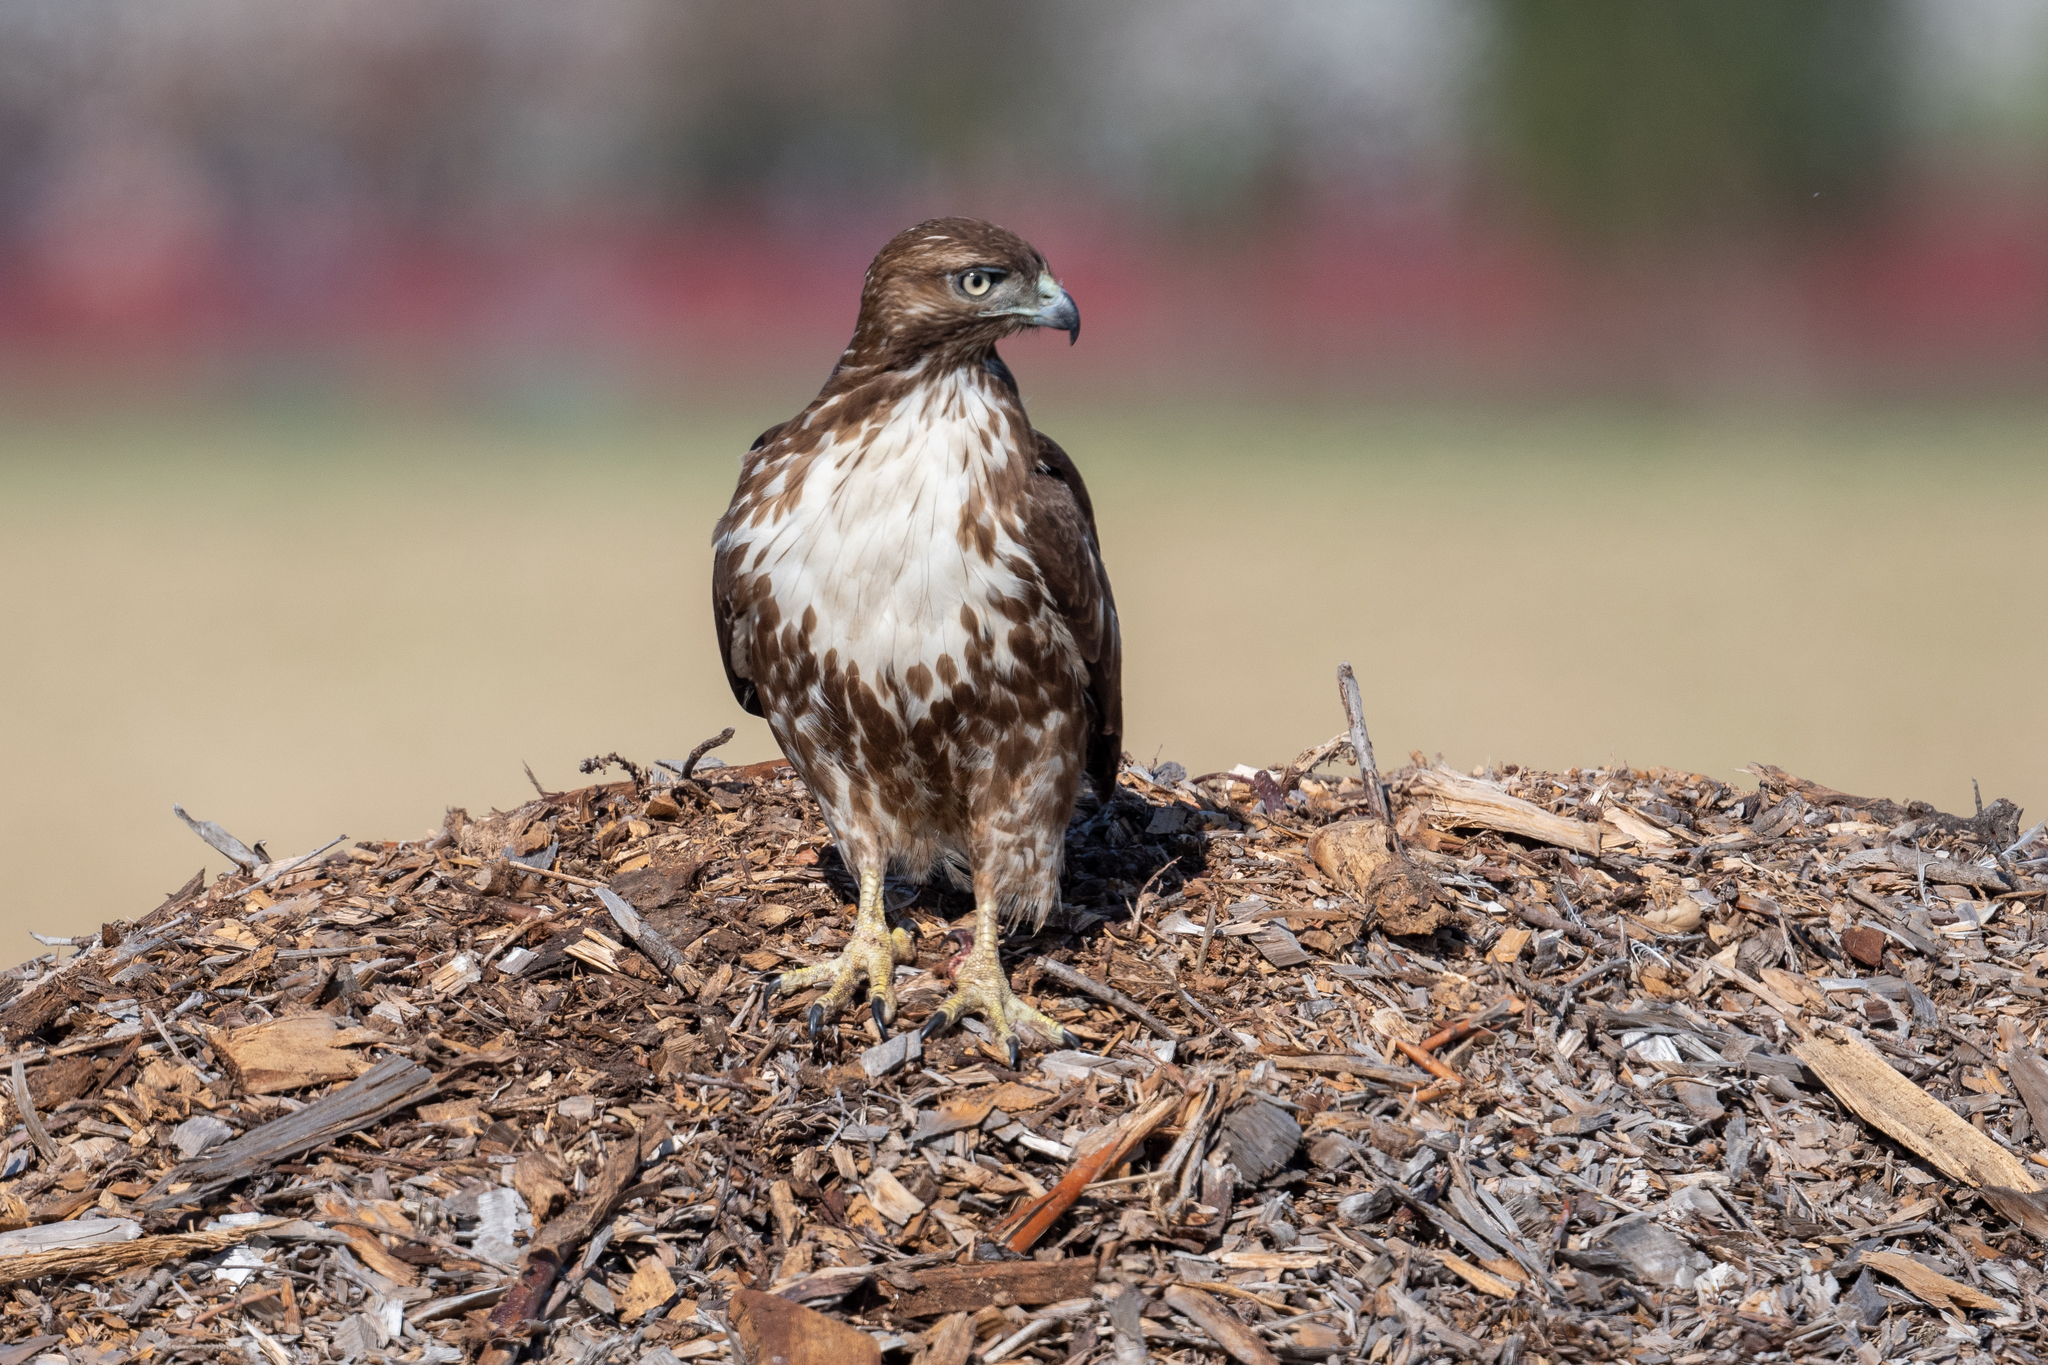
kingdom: Animalia
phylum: Chordata
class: Aves
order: Accipitriformes
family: Accipitridae
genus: Buteo
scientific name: Buteo jamaicensis
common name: Red-tailed hawk
